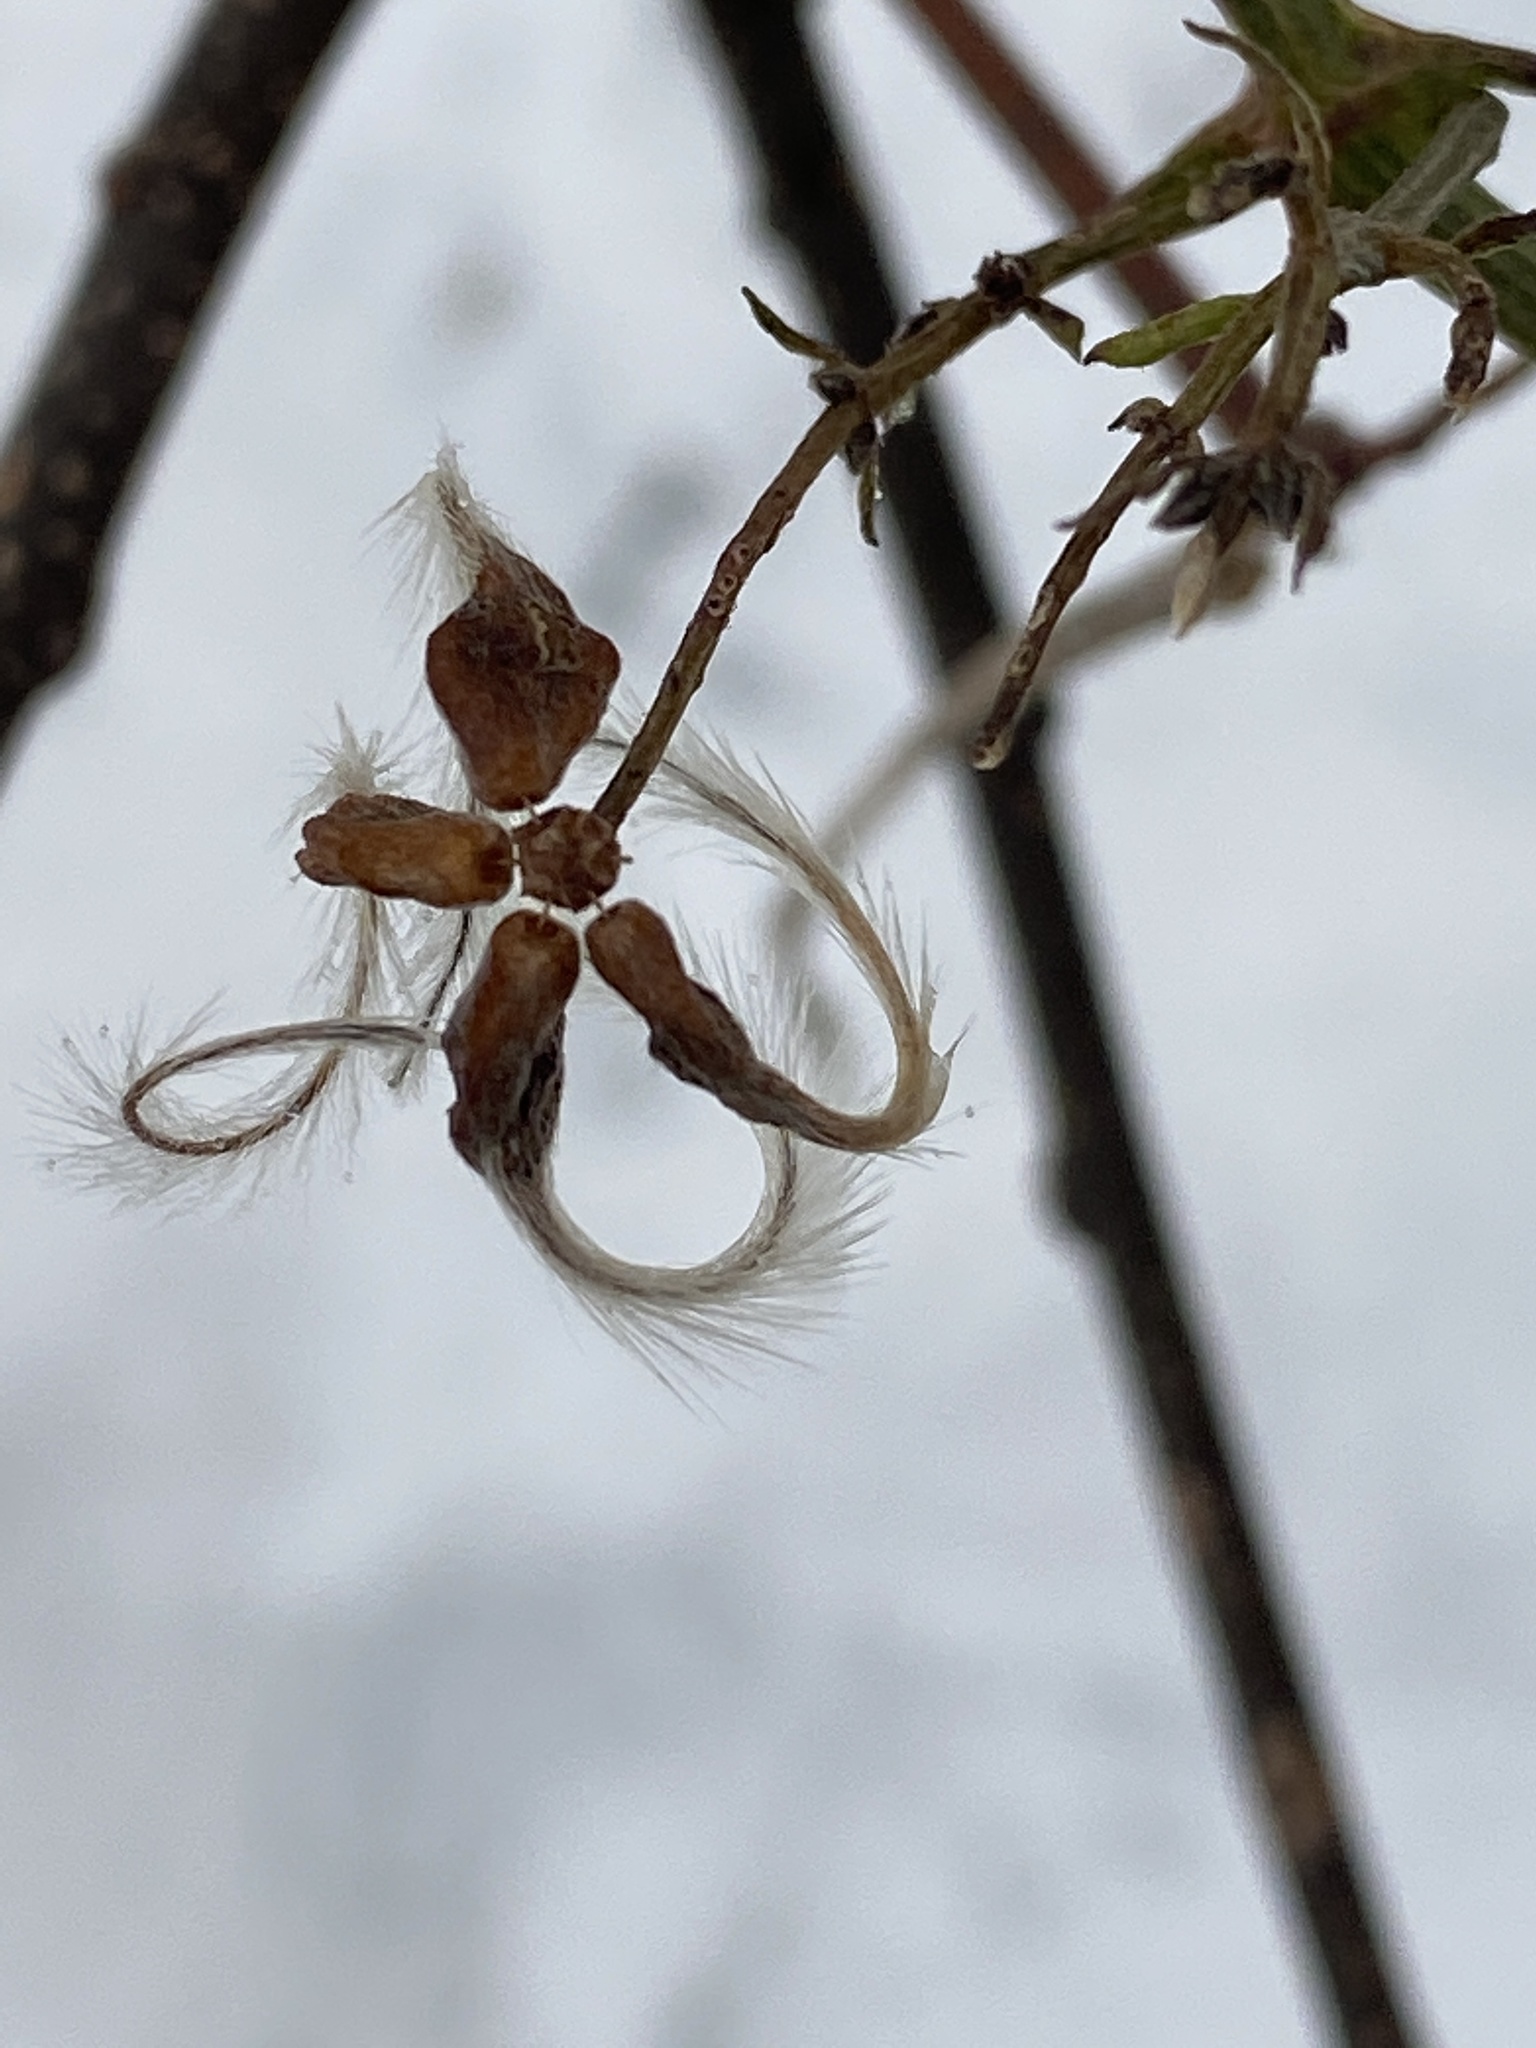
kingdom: Plantae
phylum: Tracheophyta
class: Magnoliopsida
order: Ranunculales
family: Ranunculaceae
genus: Clematis
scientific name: Clematis terniflora
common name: Sweet autumn clematis
